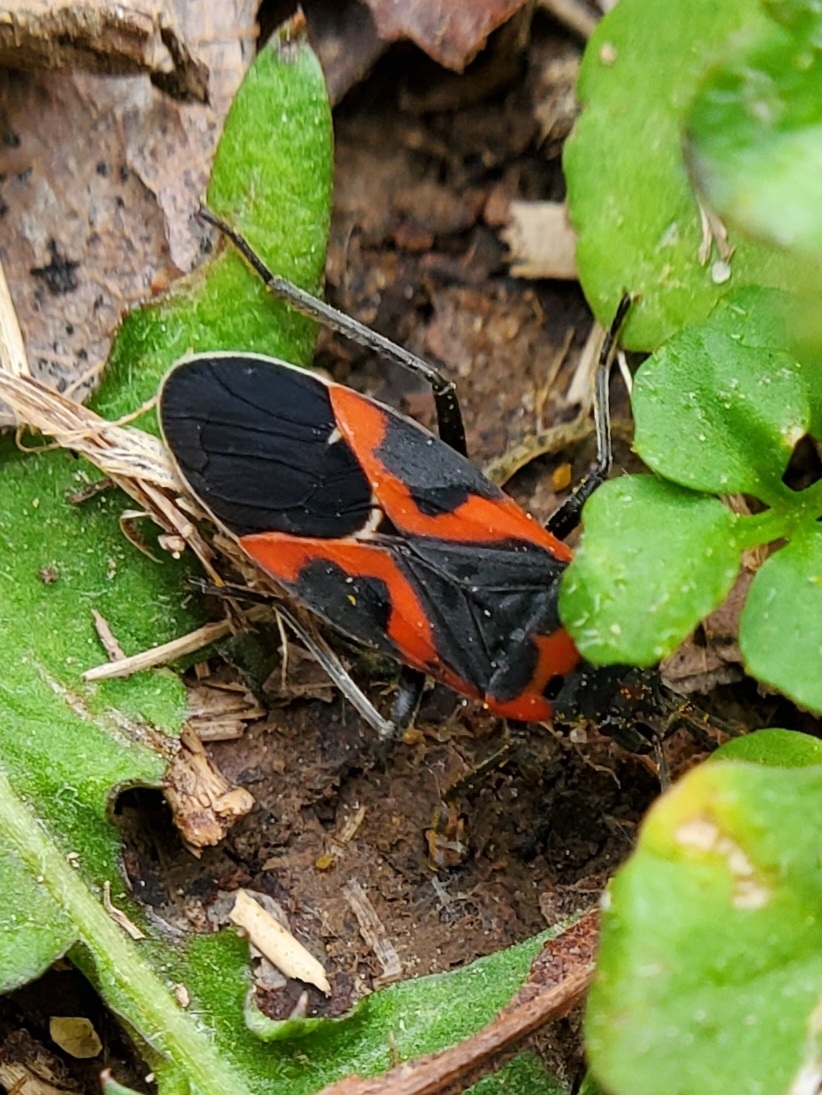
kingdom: Animalia
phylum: Arthropoda
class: Insecta
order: Hemiptera
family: Lygaeidae
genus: Lygaeus
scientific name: Lygaeus kalmii
